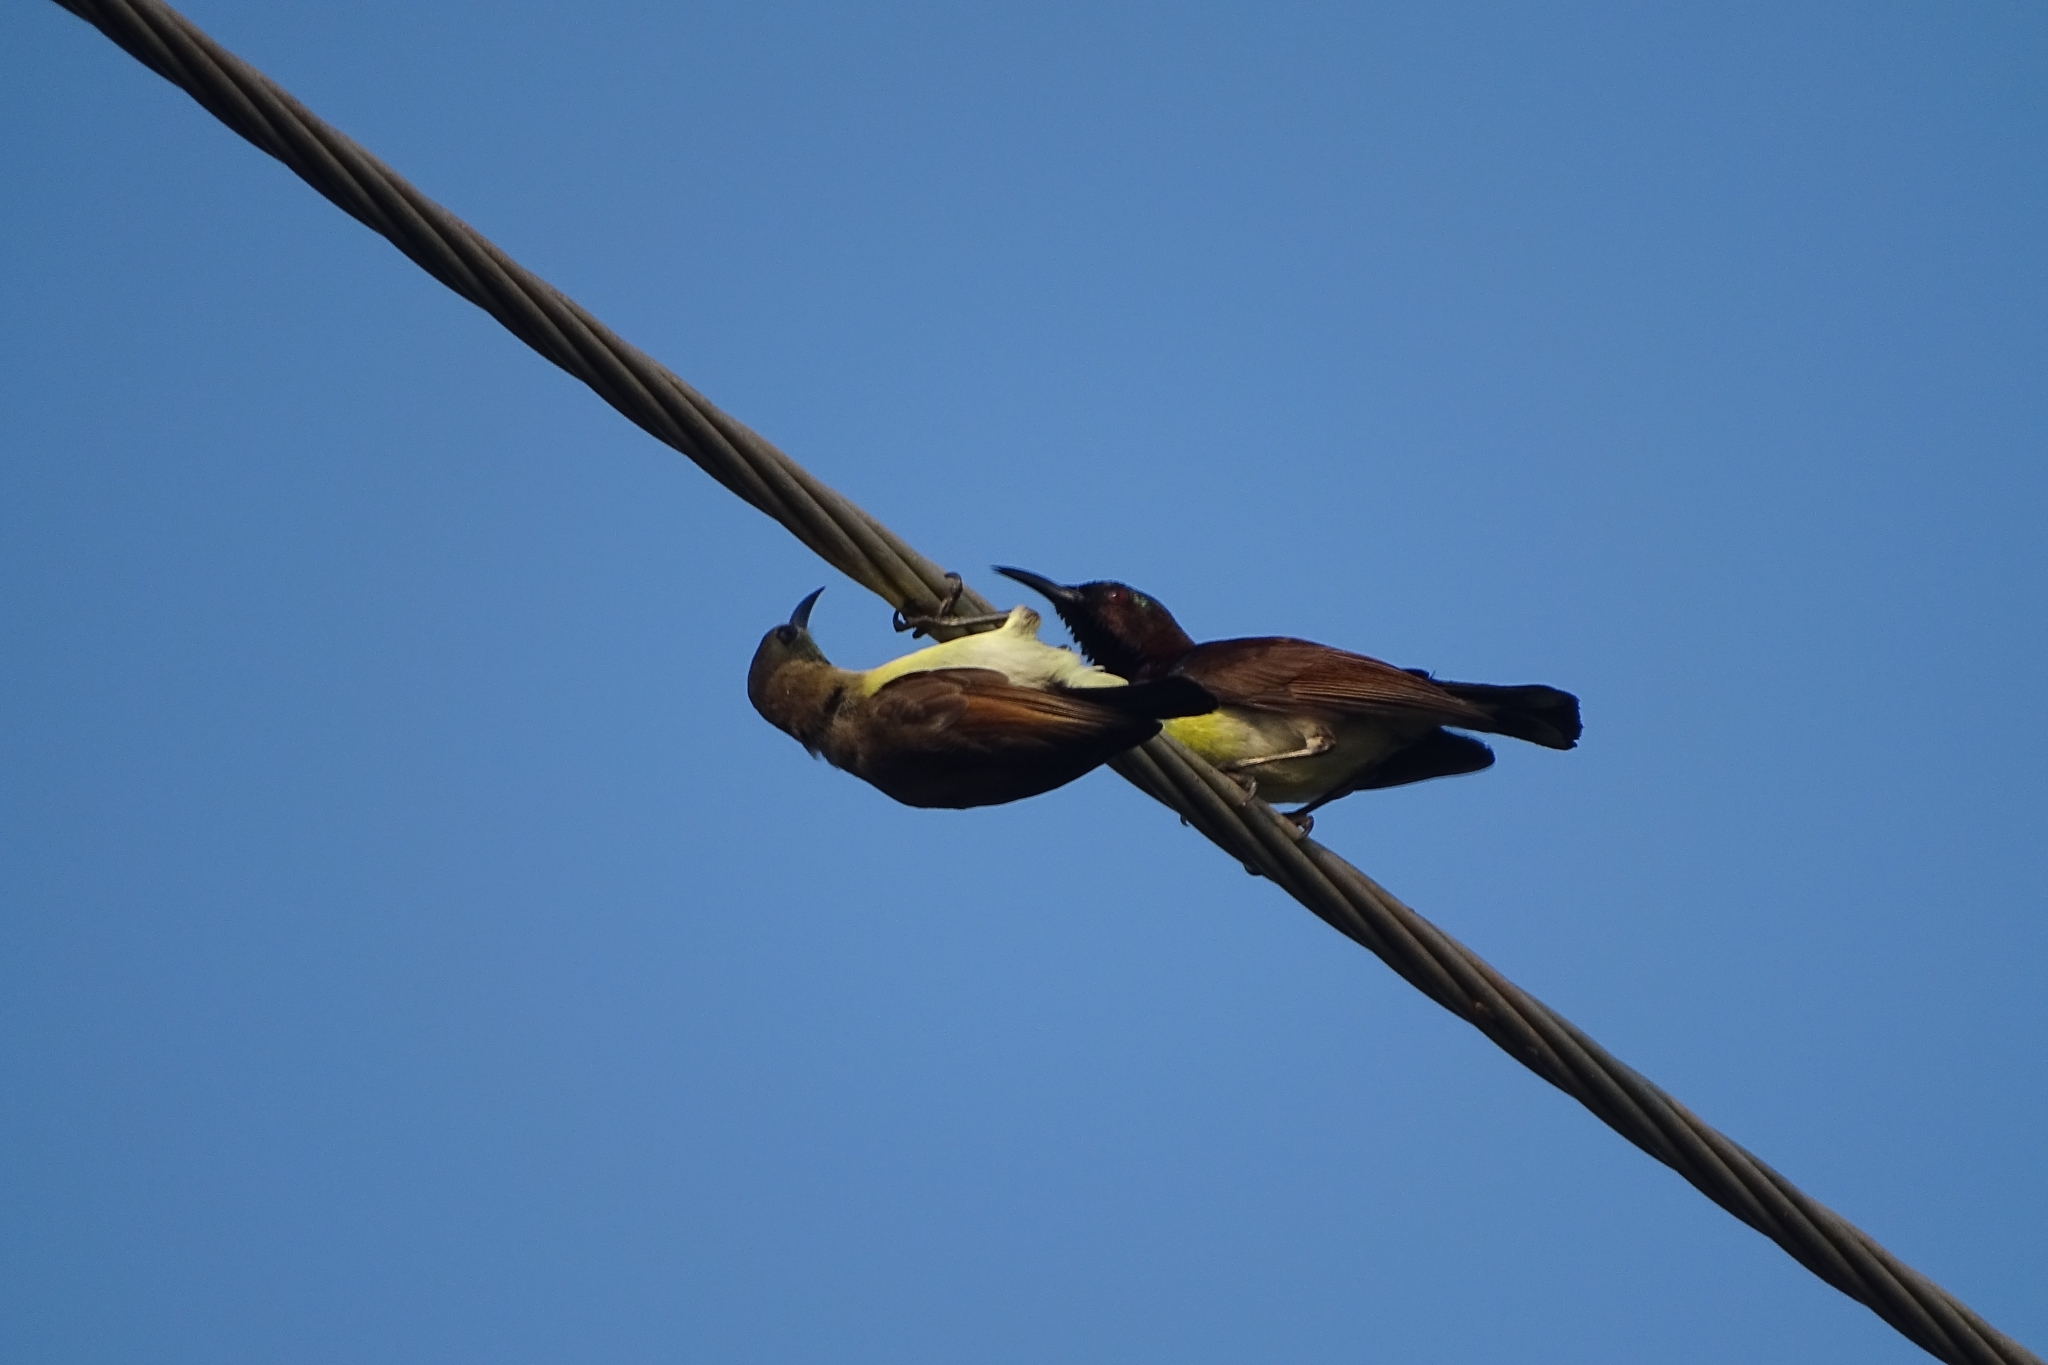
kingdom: Animalia
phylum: Chordata
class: Aves
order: Passeriformes
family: Nectariniidae
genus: Leptocoma
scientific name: Leptocoma zeylonica
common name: Purple-rumped sunbird
